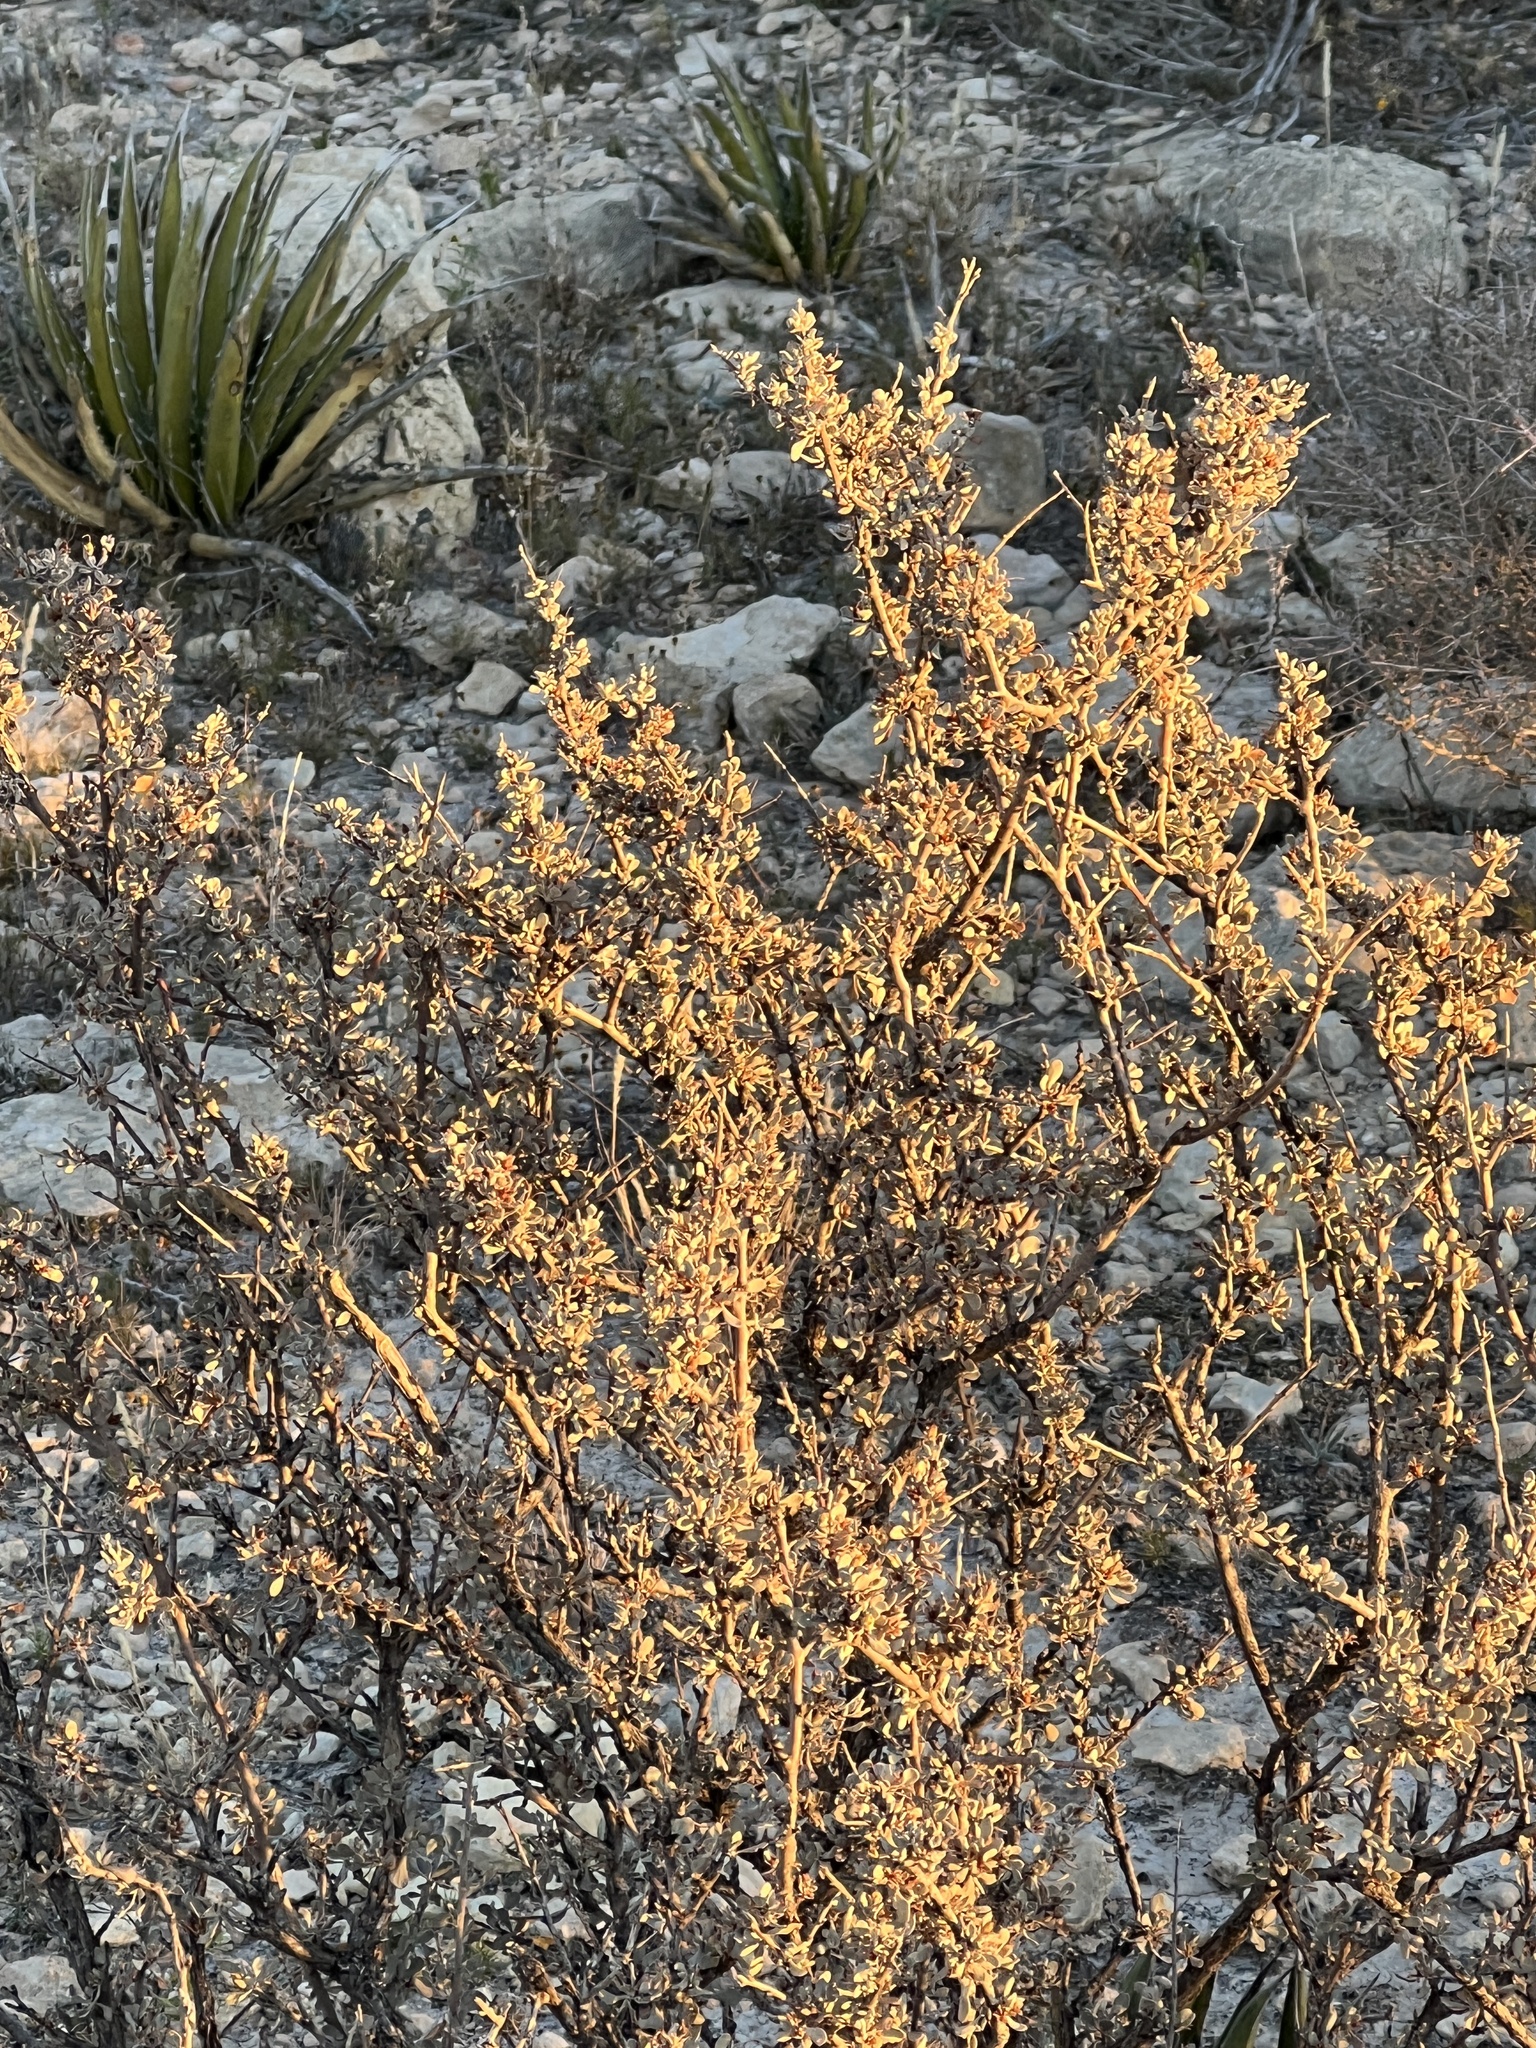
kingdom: Plantae
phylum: Tracheophyta
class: Magnoliopsida
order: Zygophyllales
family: Zygophyllaceae
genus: Larrea
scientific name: Larrea tridentata
